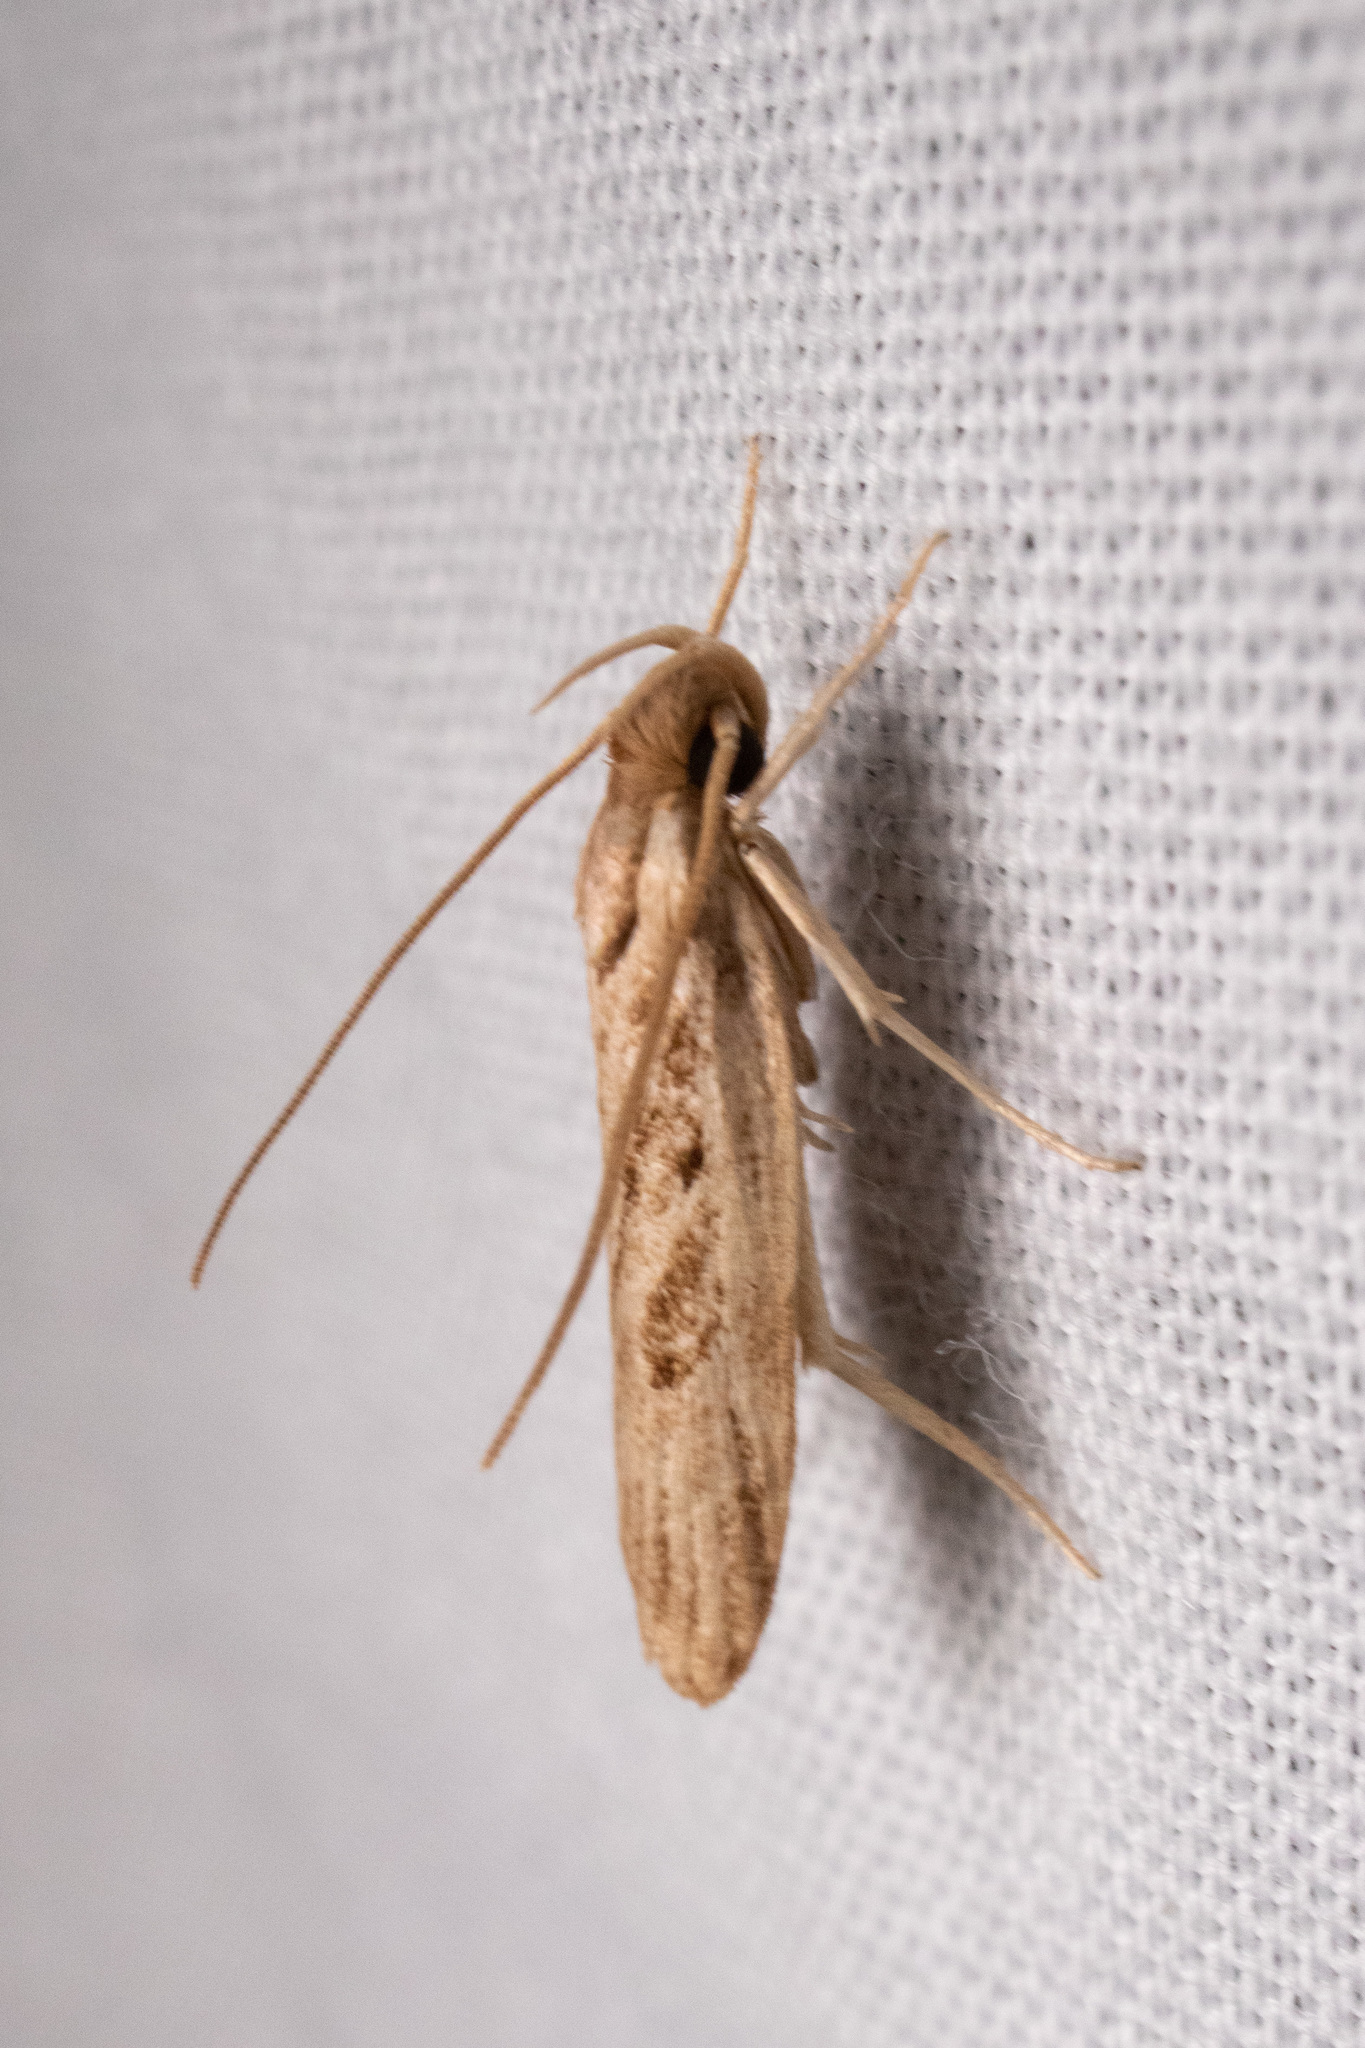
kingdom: Animalia
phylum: Arthropoda
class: Insecta
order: Lepidoptera
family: Depressariidae
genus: Eupragia
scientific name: Eupragia hospita
